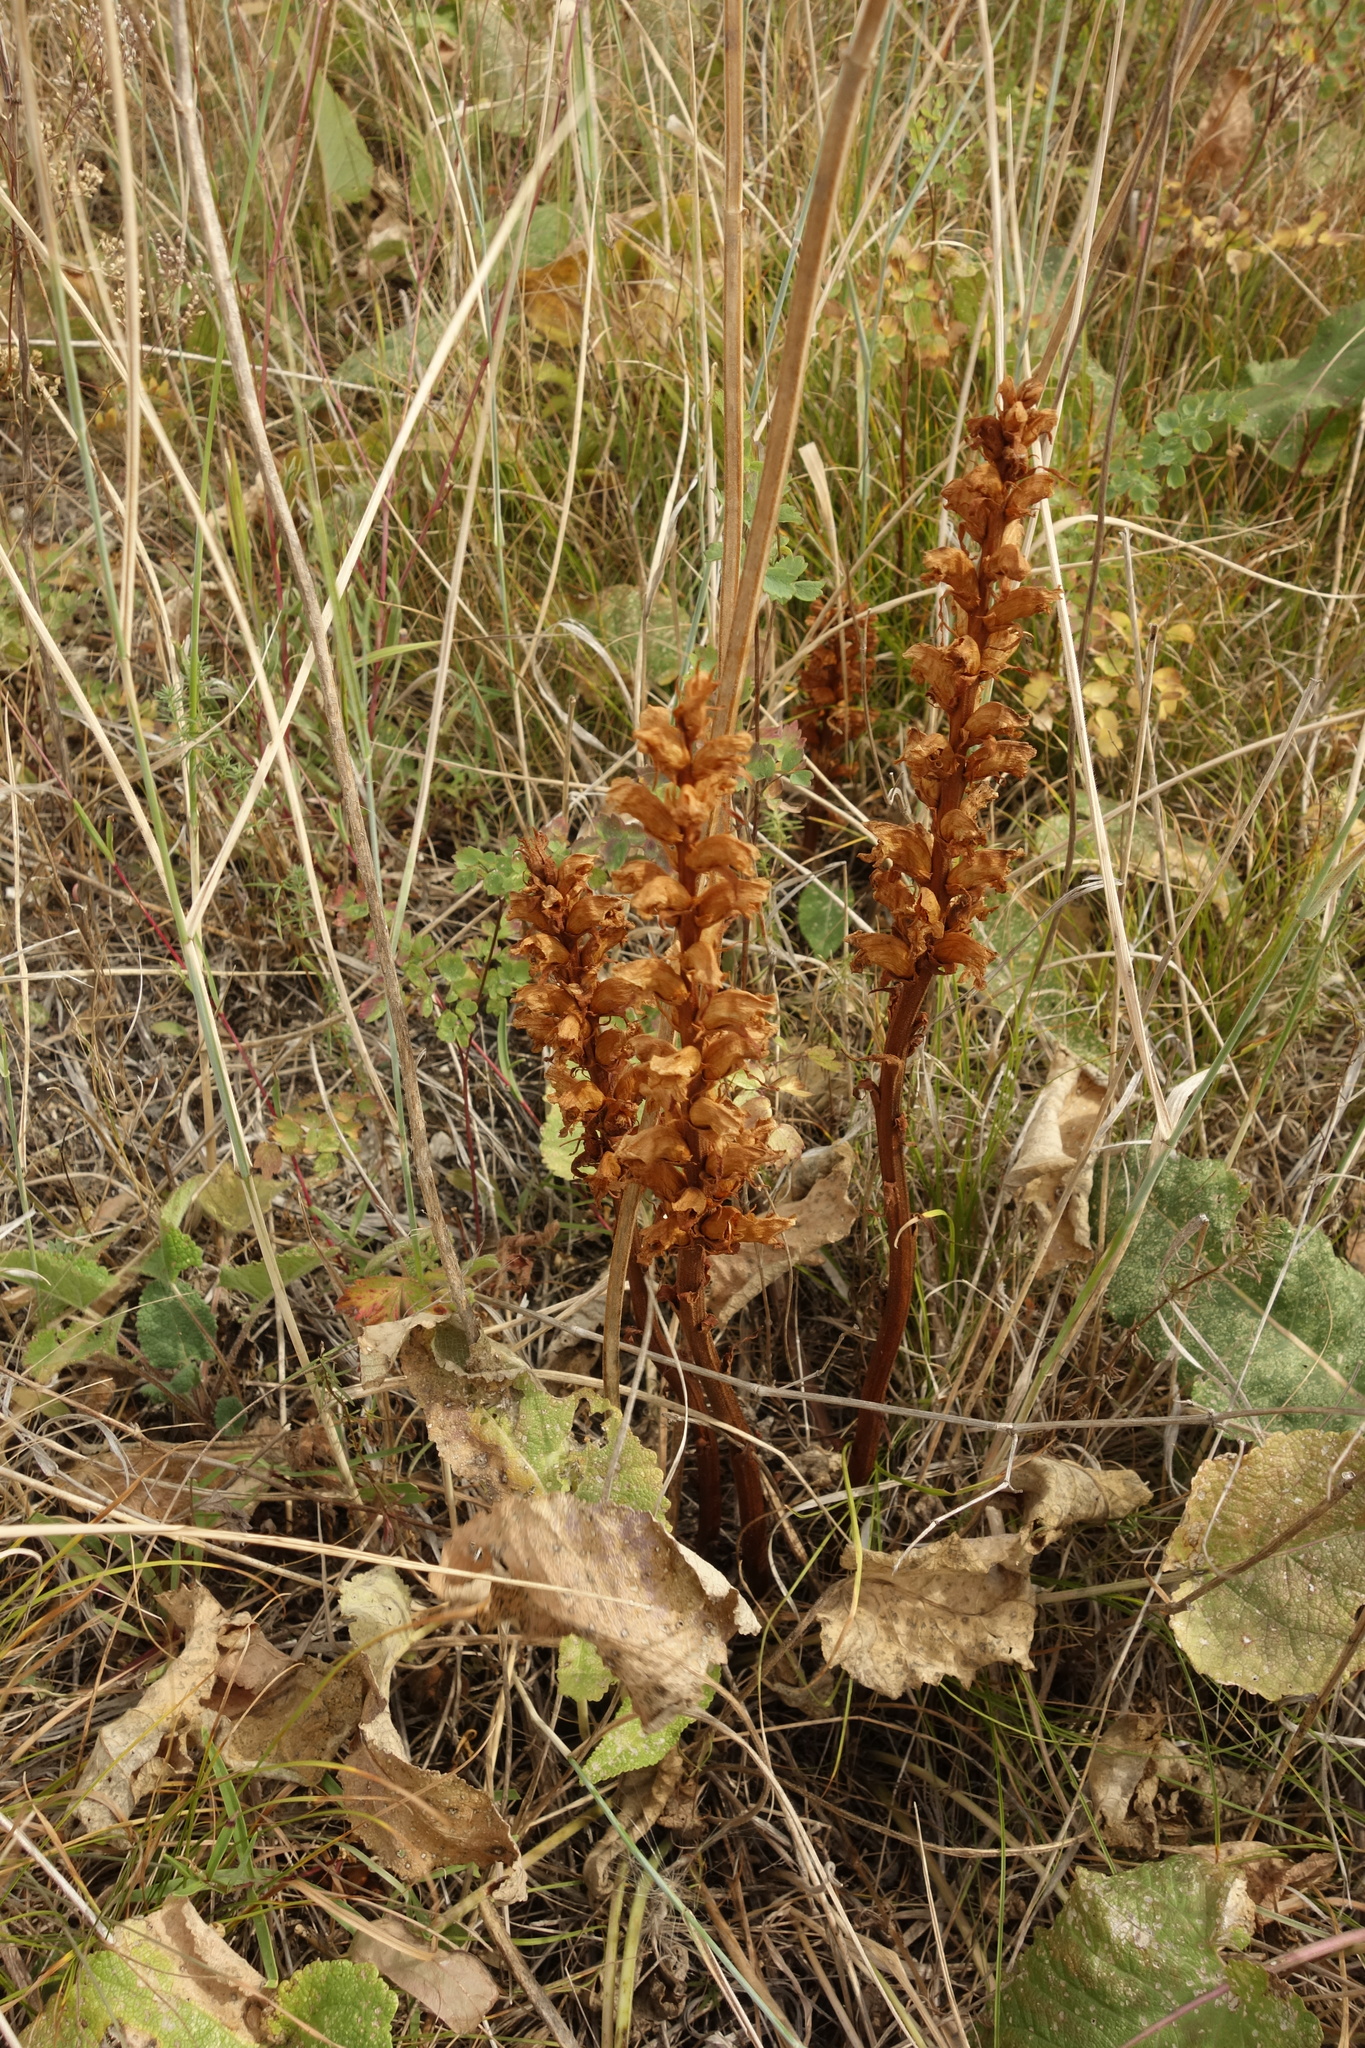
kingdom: Plantae
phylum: Tracheophyta
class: Magnoliopsida
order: Lamiales
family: Orobanchaceae
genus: Orobanche
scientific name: Orobanche alba
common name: Thyme broomrape
